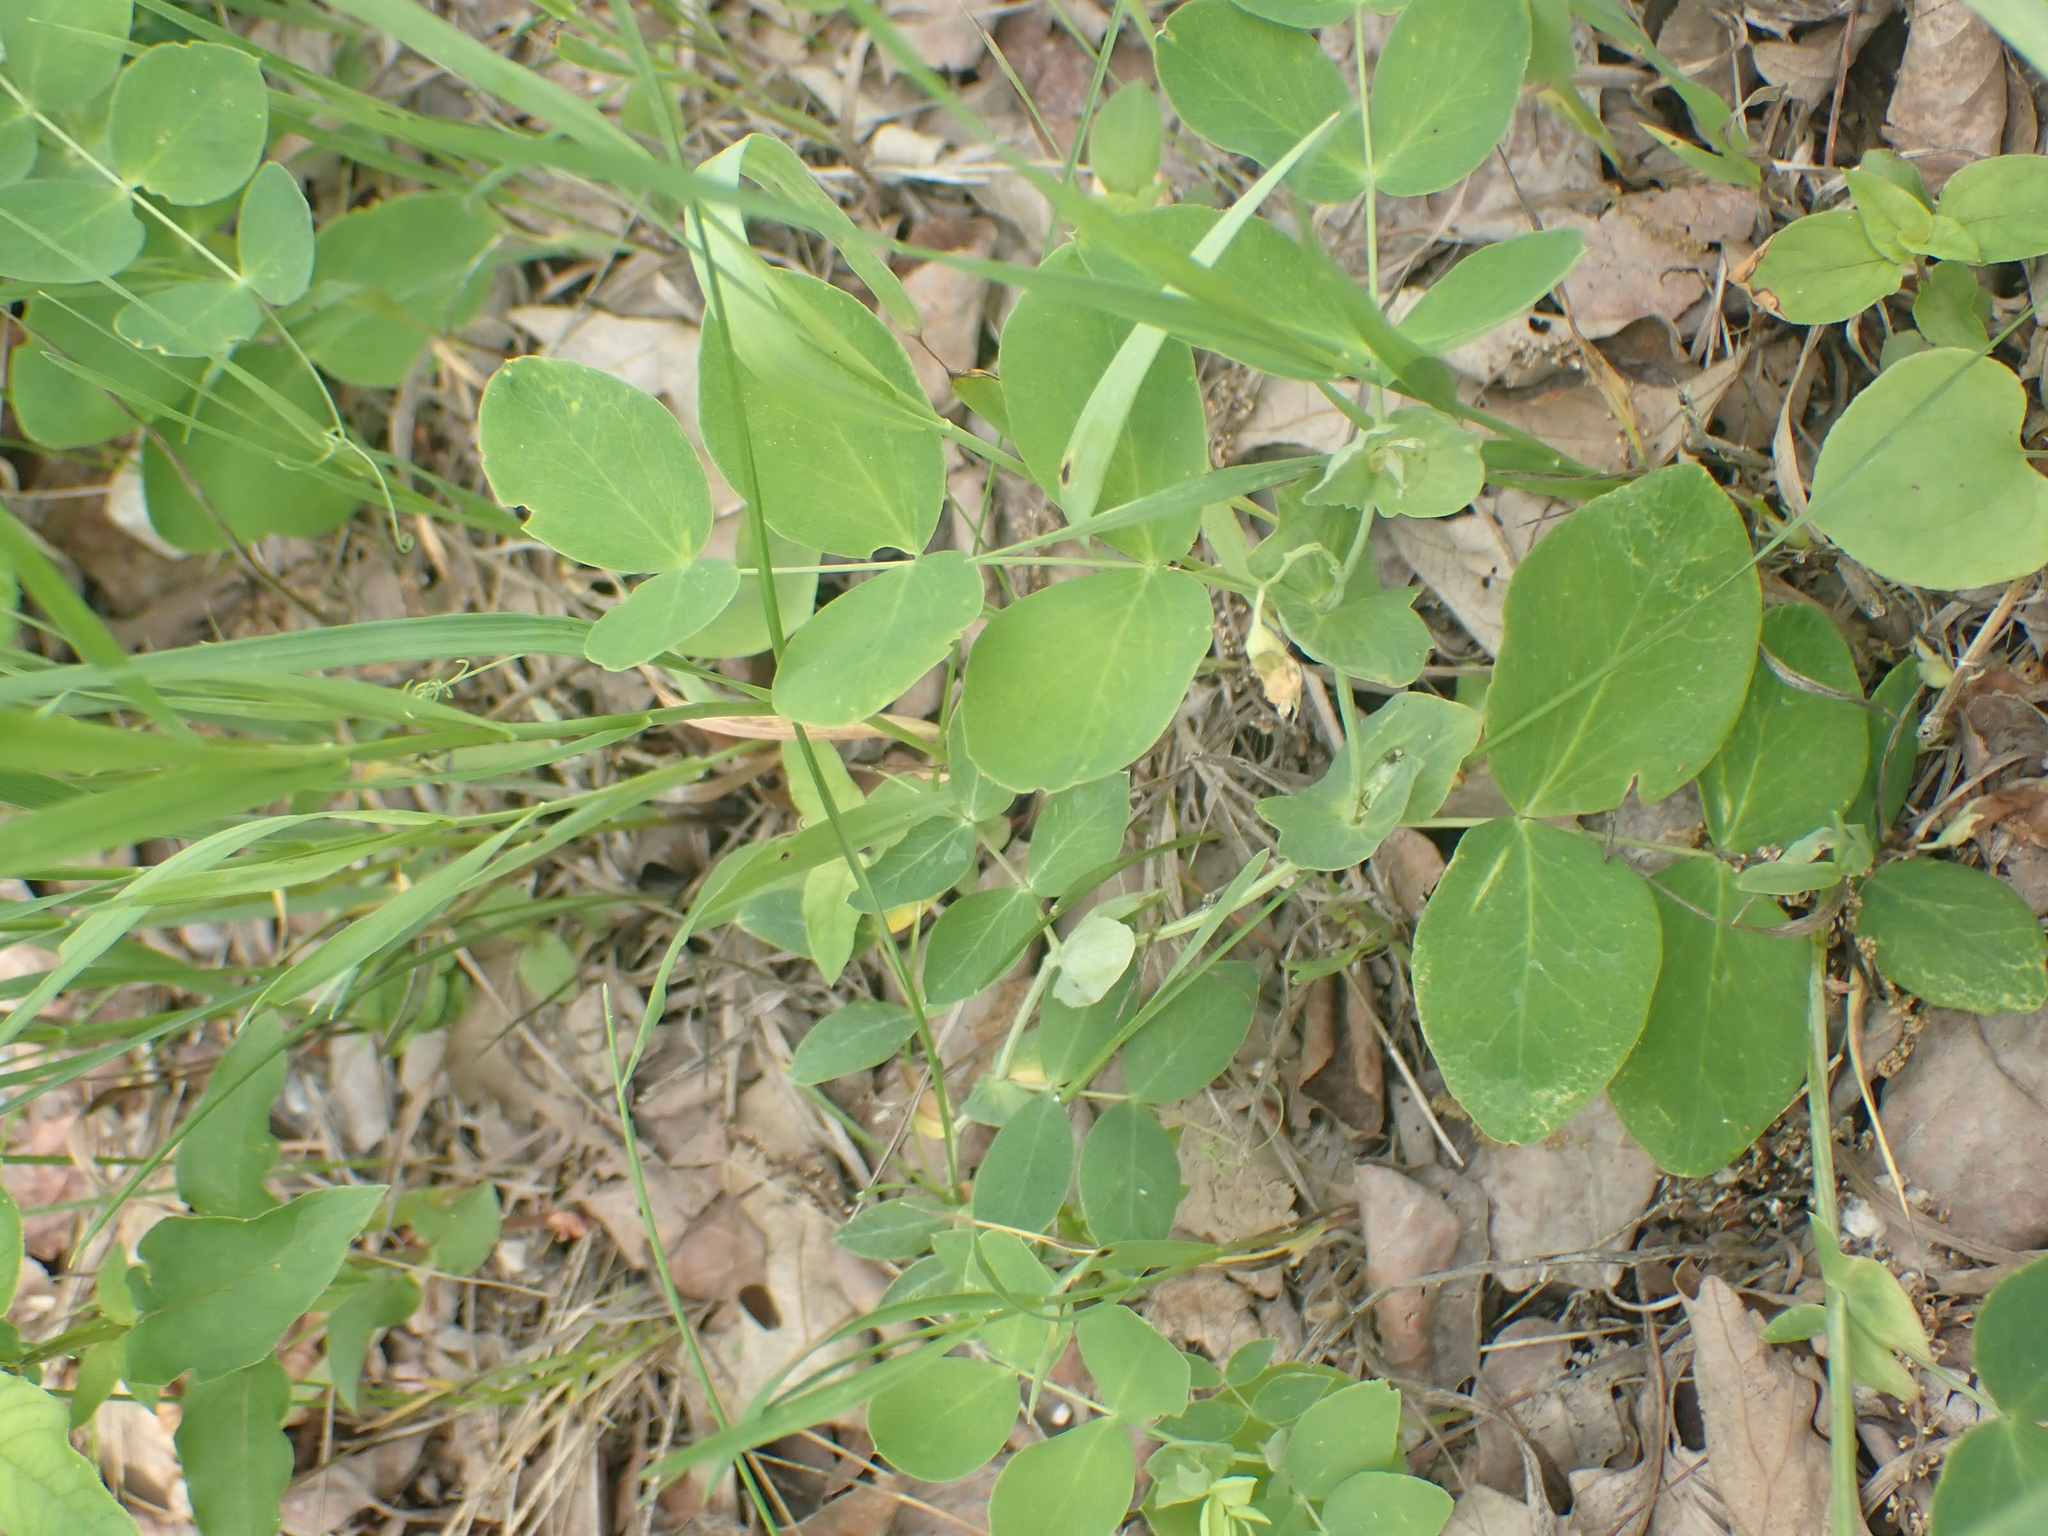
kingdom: Plantae
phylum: Tracheophyta
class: Magnoliopsida
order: Fabales
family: Fabaceae
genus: Lathyrus
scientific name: Lathyrus ochroleucus
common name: Pale vetchling
